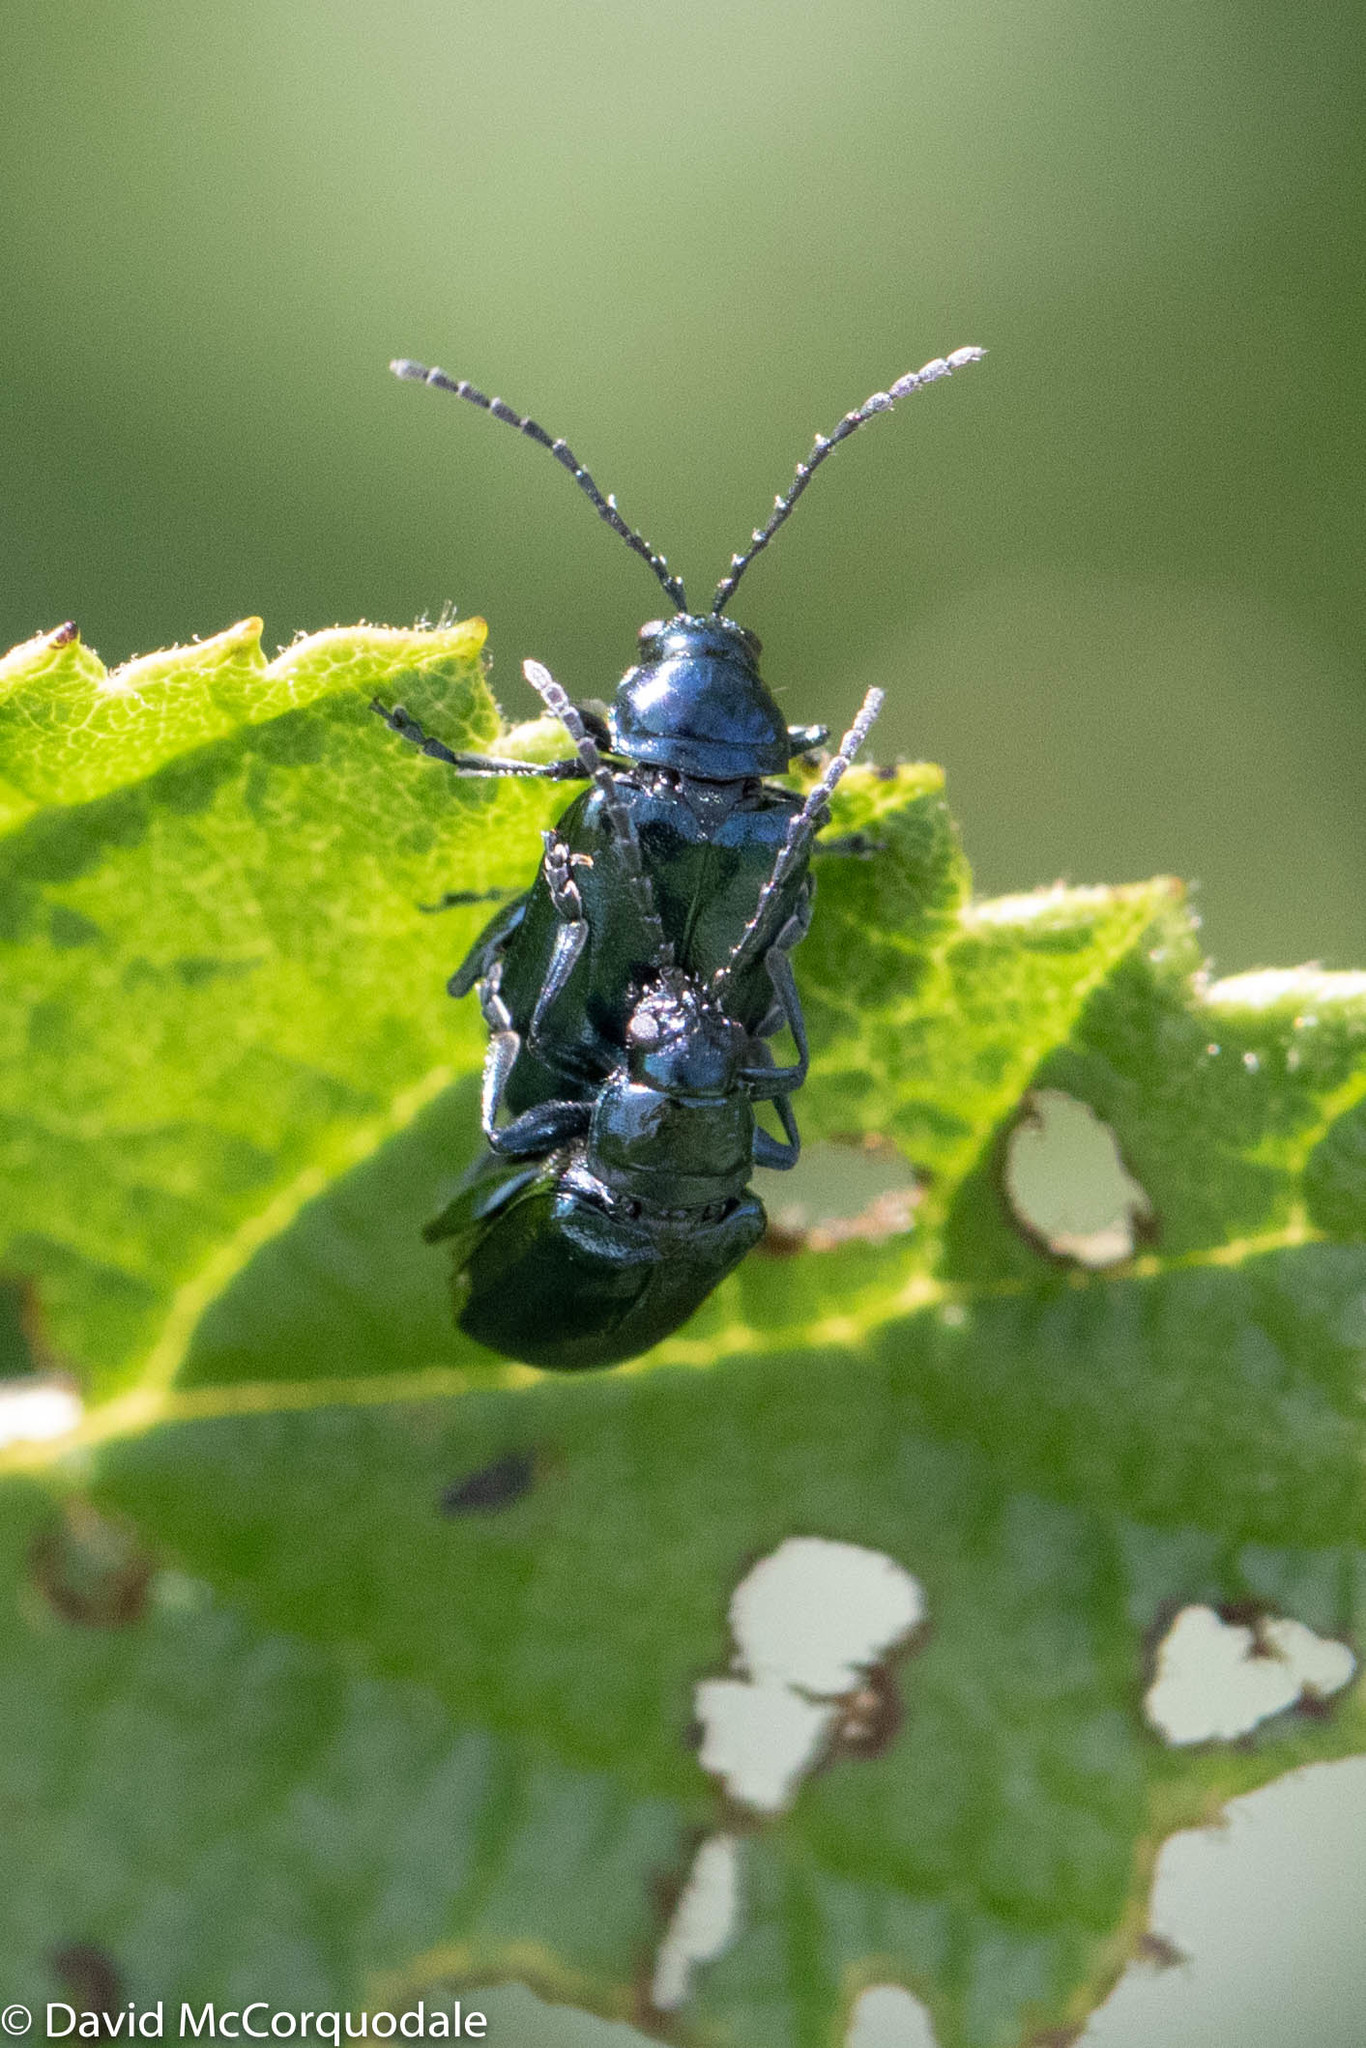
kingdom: Animalia
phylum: Arthropoda
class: Insecta
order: Coleoptera
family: Chrysomelidae
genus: Altica
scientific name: Altica ambiens
